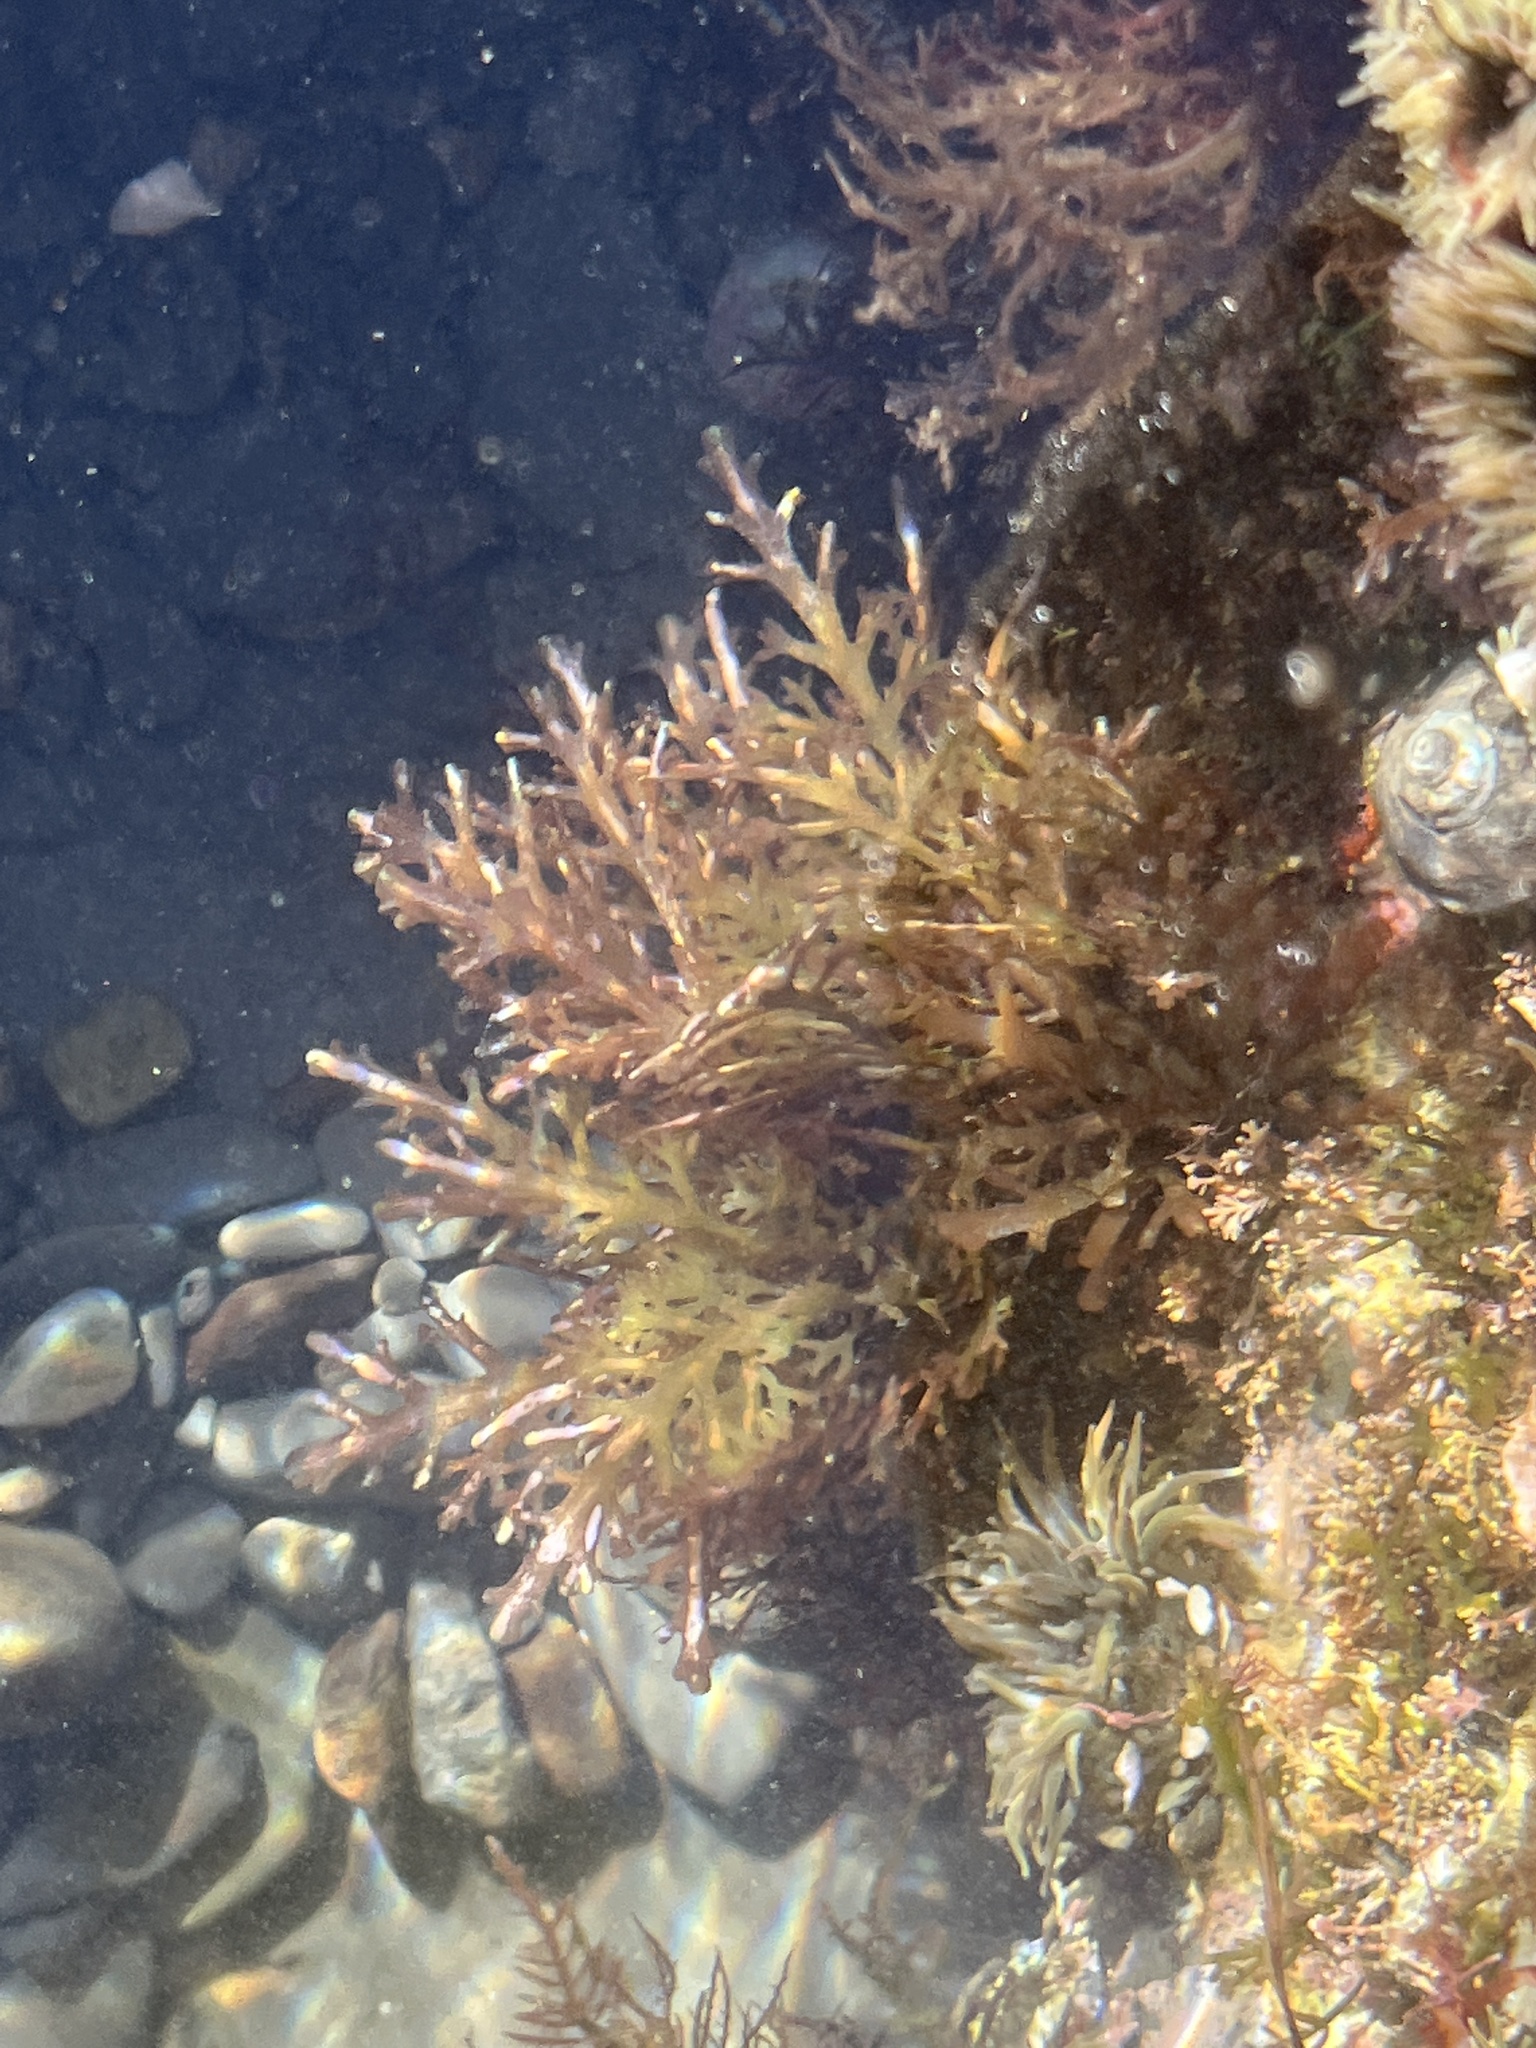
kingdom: Plantae
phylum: Rhodophyta
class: Florideophyceae
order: Ceramiales
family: Rhodomelaceae
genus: Osmundea
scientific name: Osmundea spectabilis
